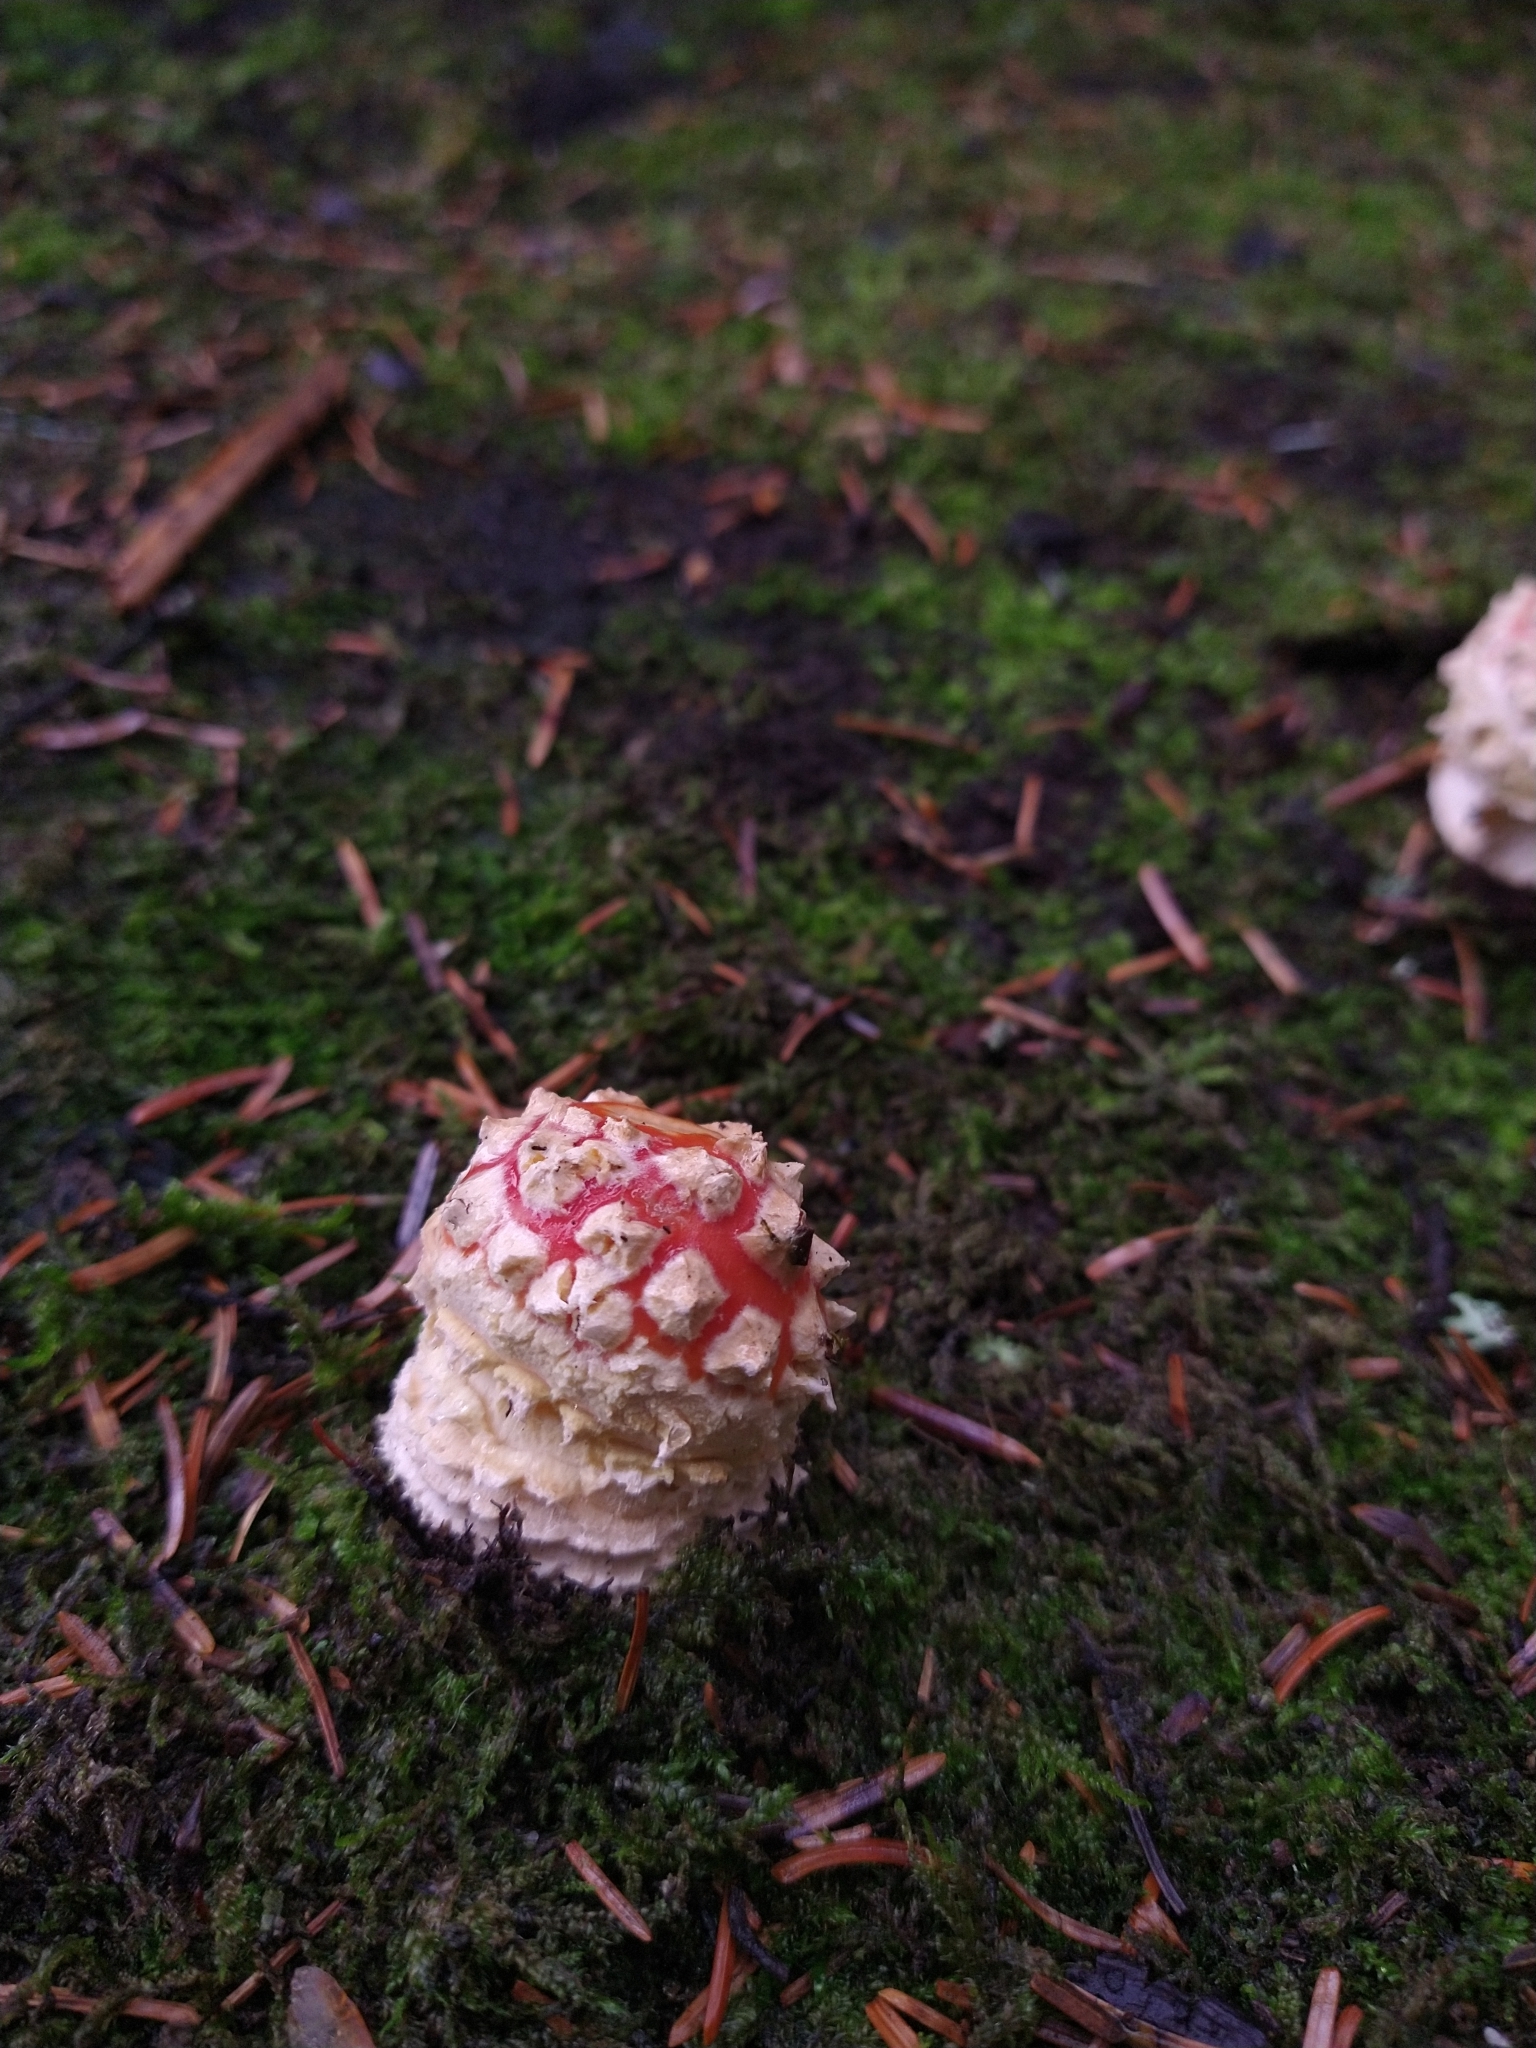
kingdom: Fungi
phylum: Basidiomycota
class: Agaricomycetes
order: Agaricales
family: Amanitaceae
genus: Amanita
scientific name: Amanita muscaria
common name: Fly agaric
